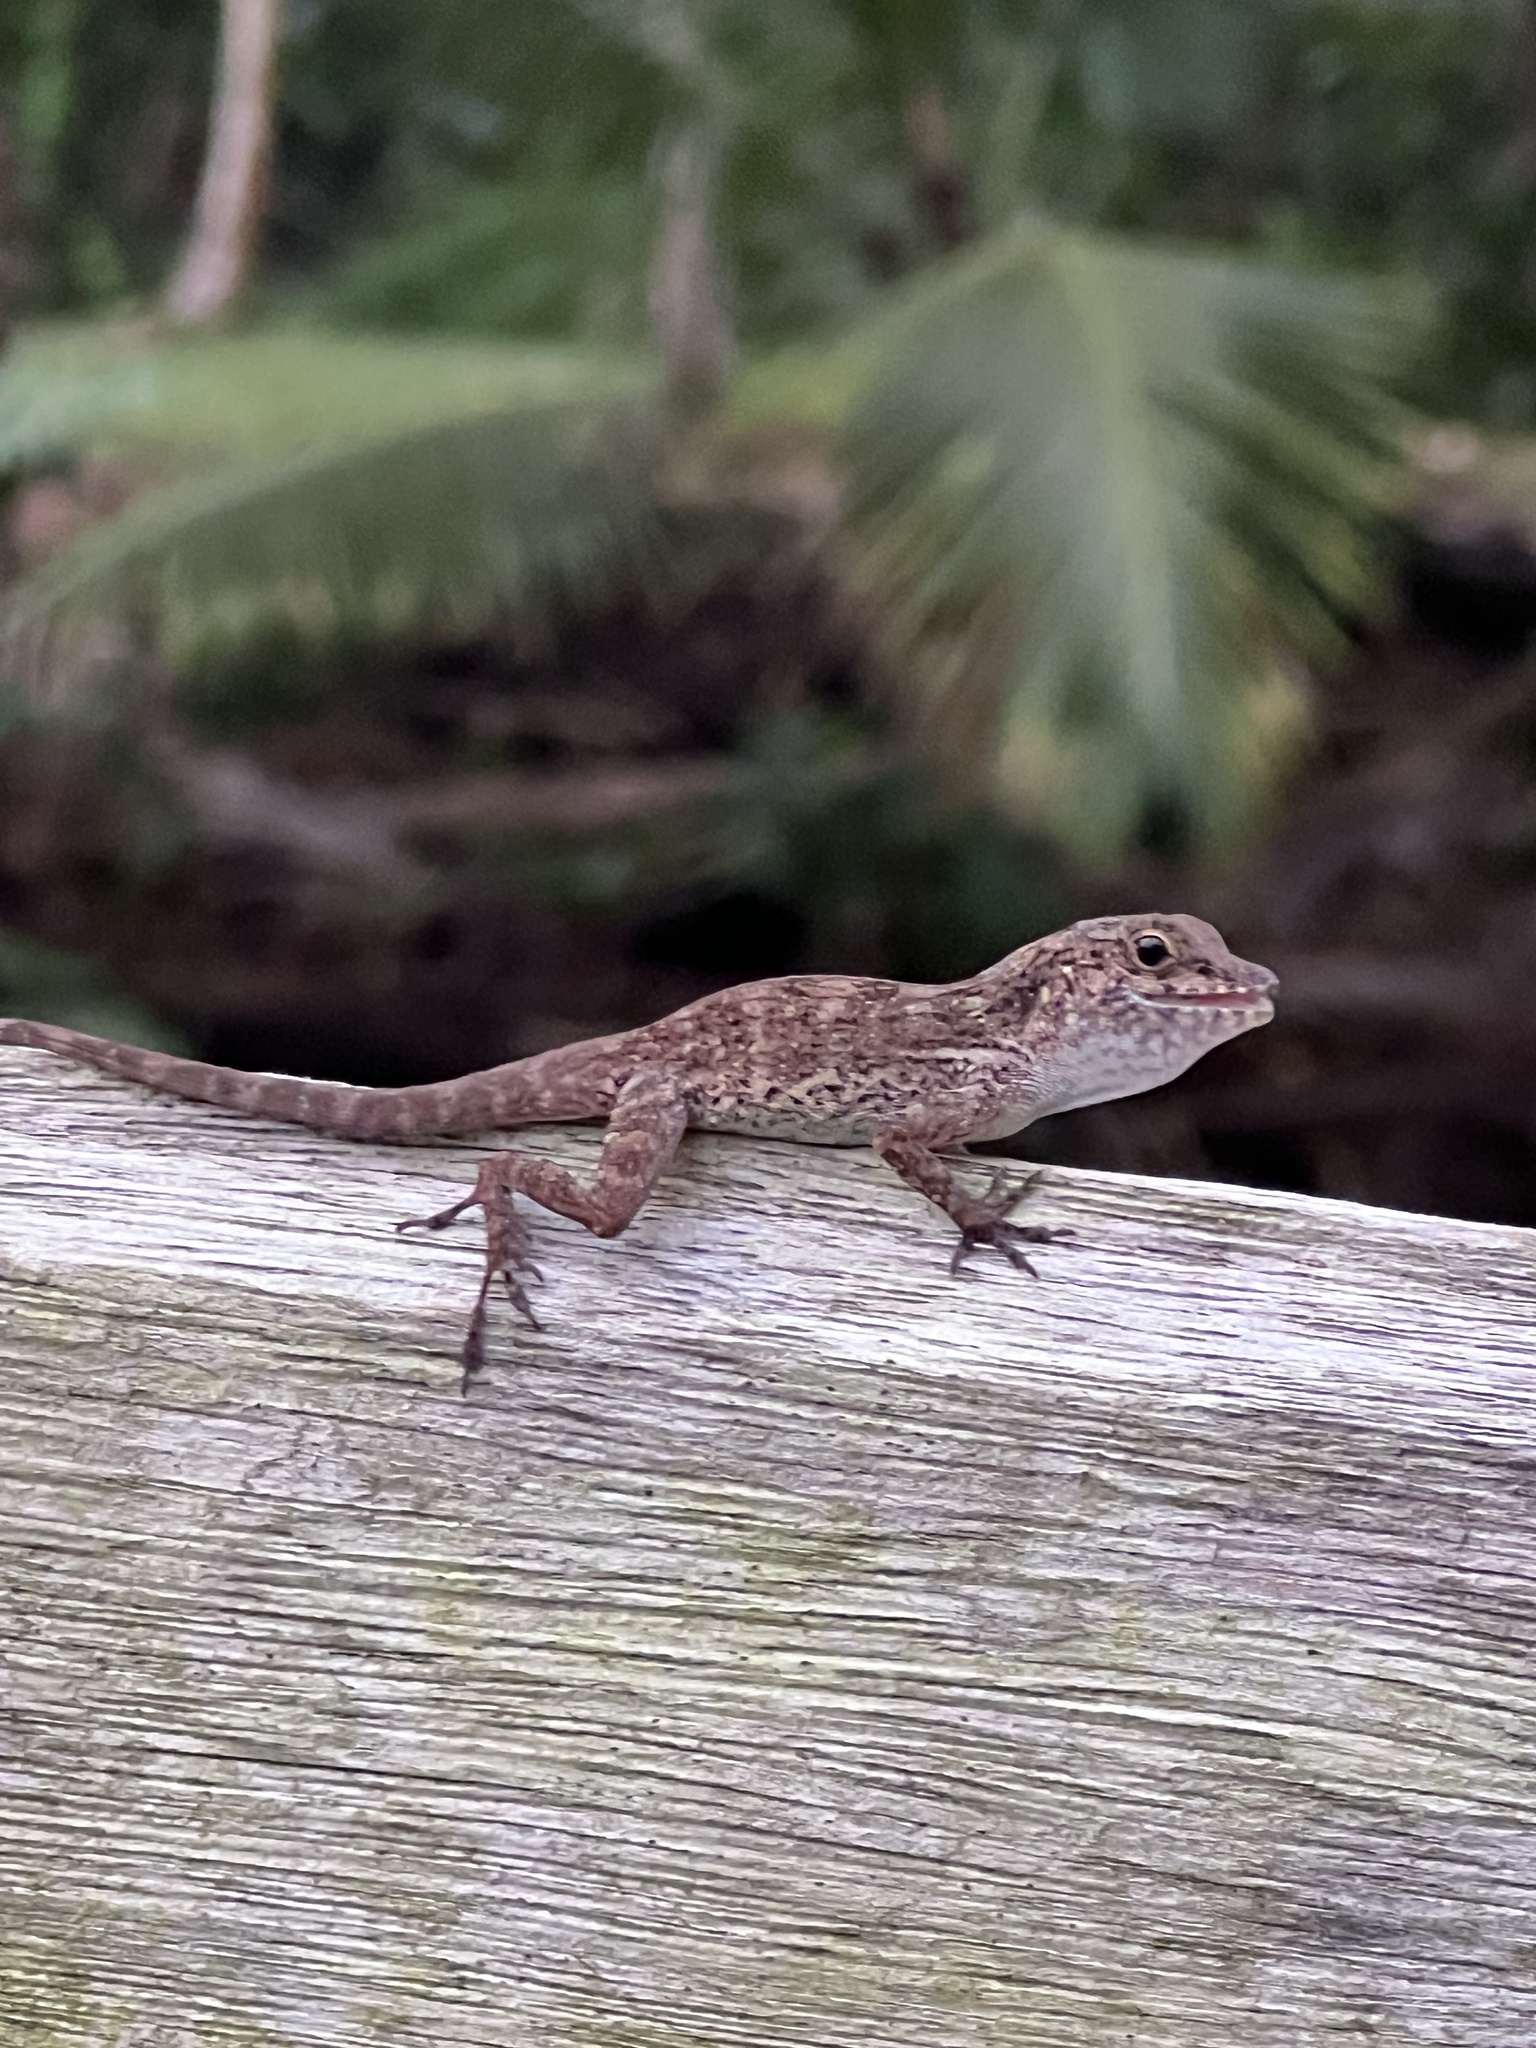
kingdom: Animalia
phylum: Chordata
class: Squamata
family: Dactyloidae
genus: Anolis
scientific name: Anolis cristatellus
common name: Crested anole
